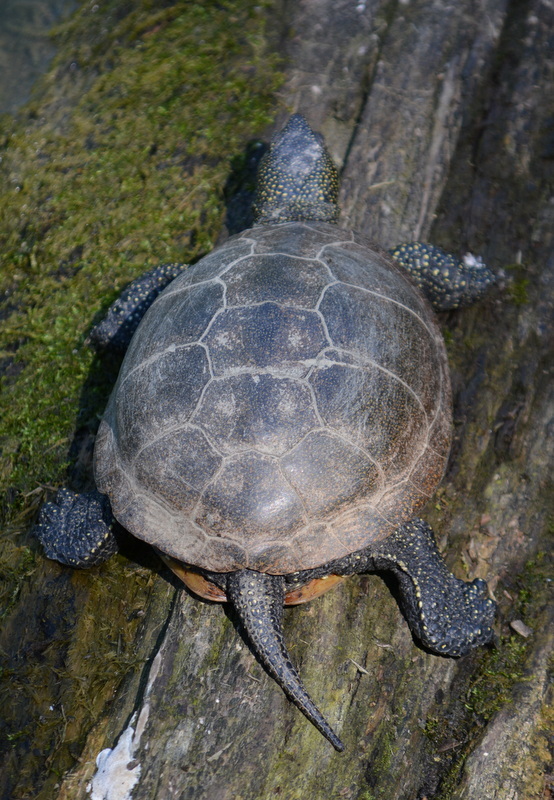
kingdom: Animalia
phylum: Chordata
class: Testudines
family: Emydidae
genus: Emys
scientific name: Emys orbicularis
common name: European pond turtle
